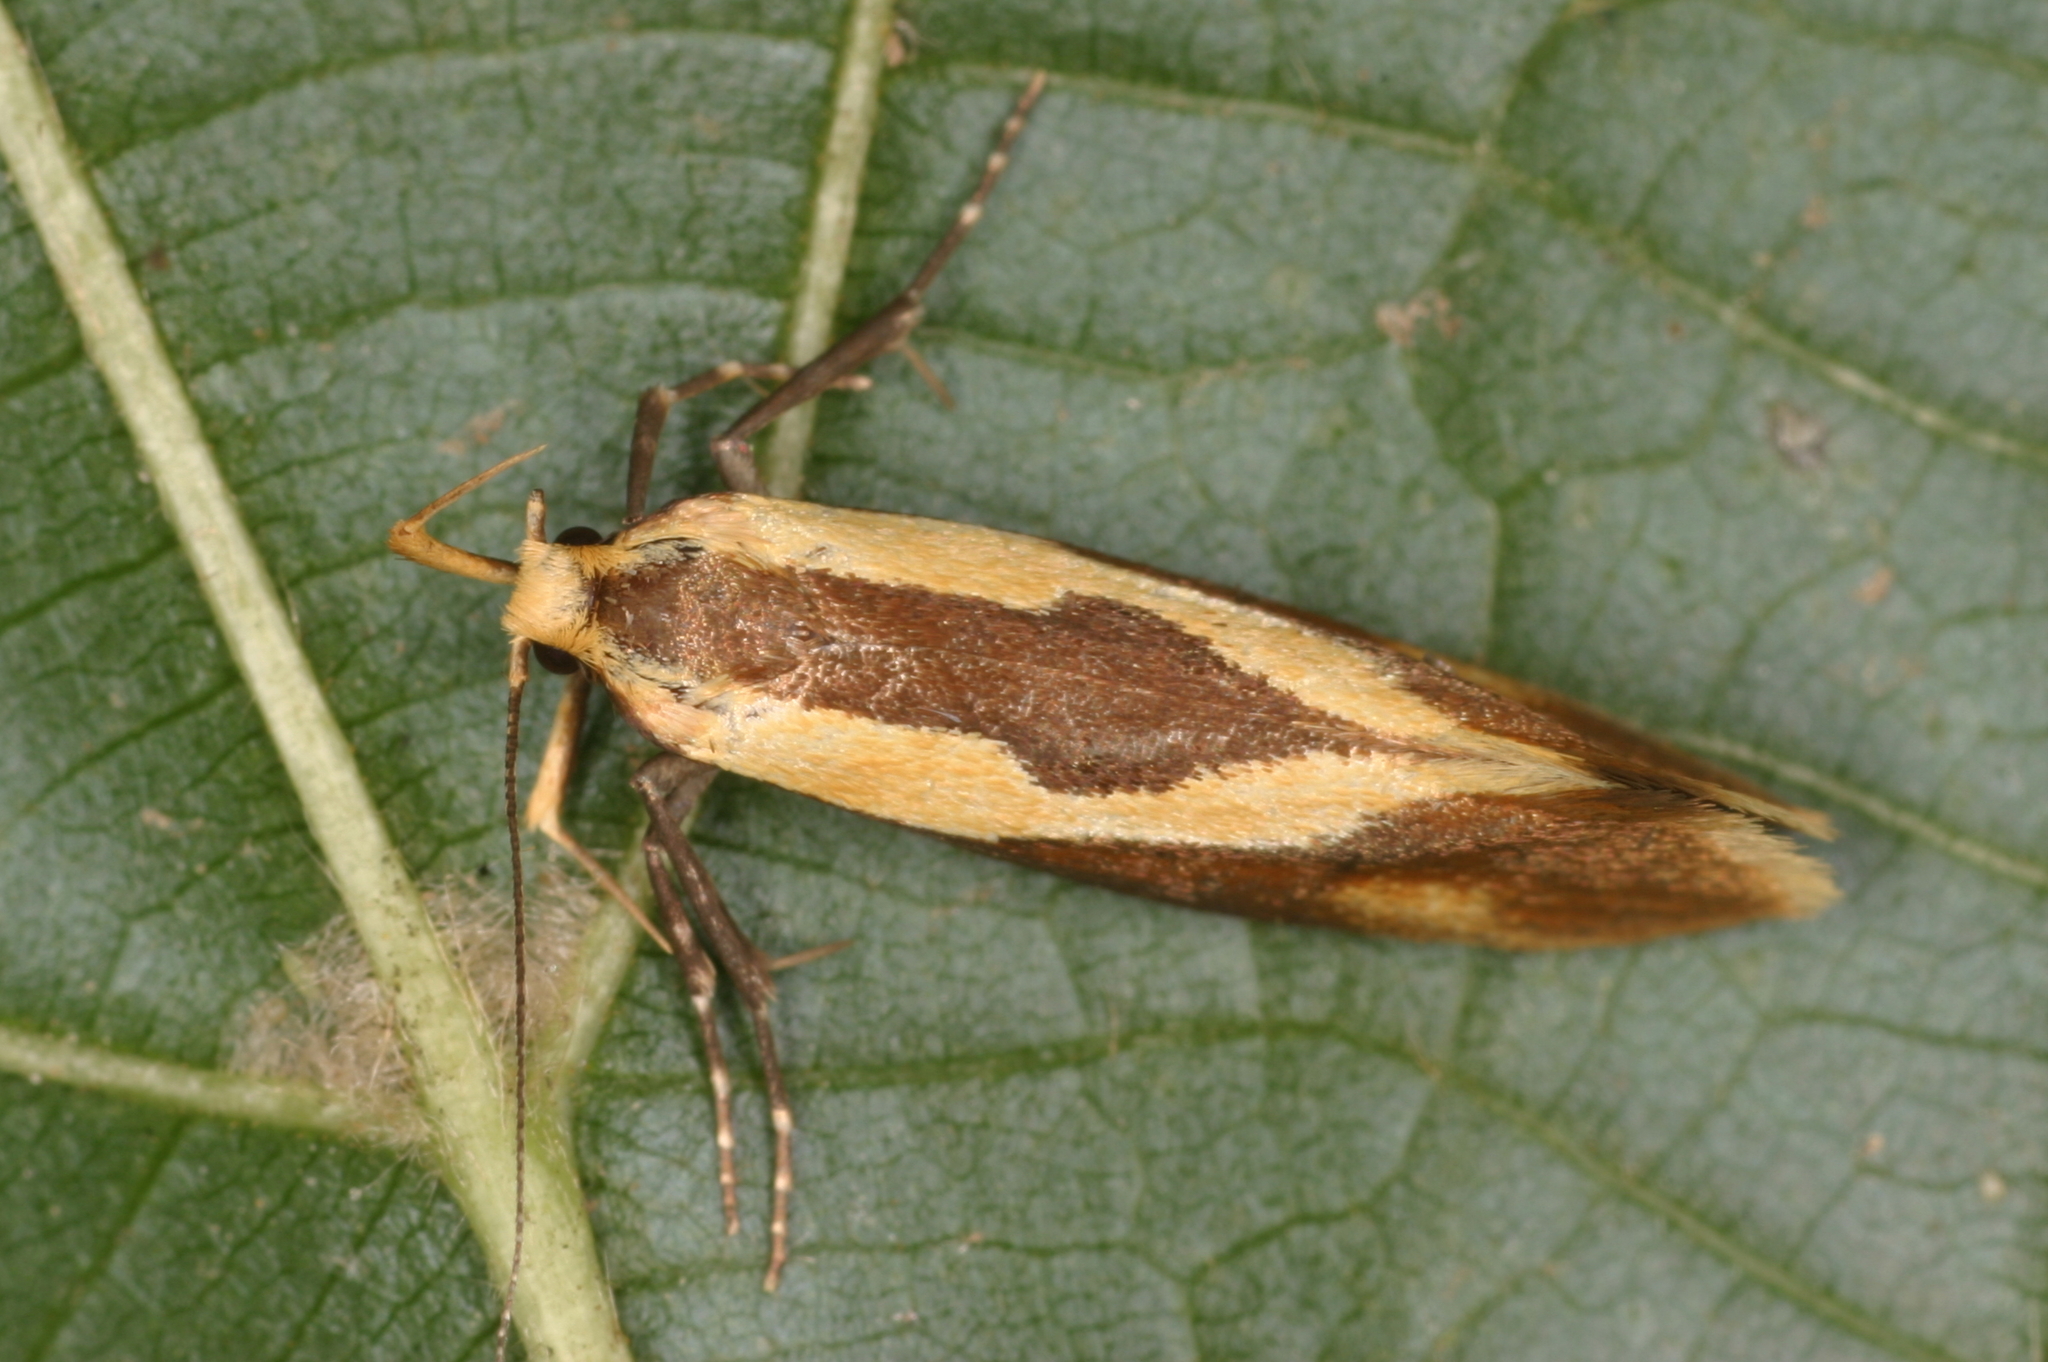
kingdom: Animalia
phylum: Arthropoda
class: Insecta
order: Lepidoptera
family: Oecophoridae
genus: Harpella
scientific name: Harpella forficella
